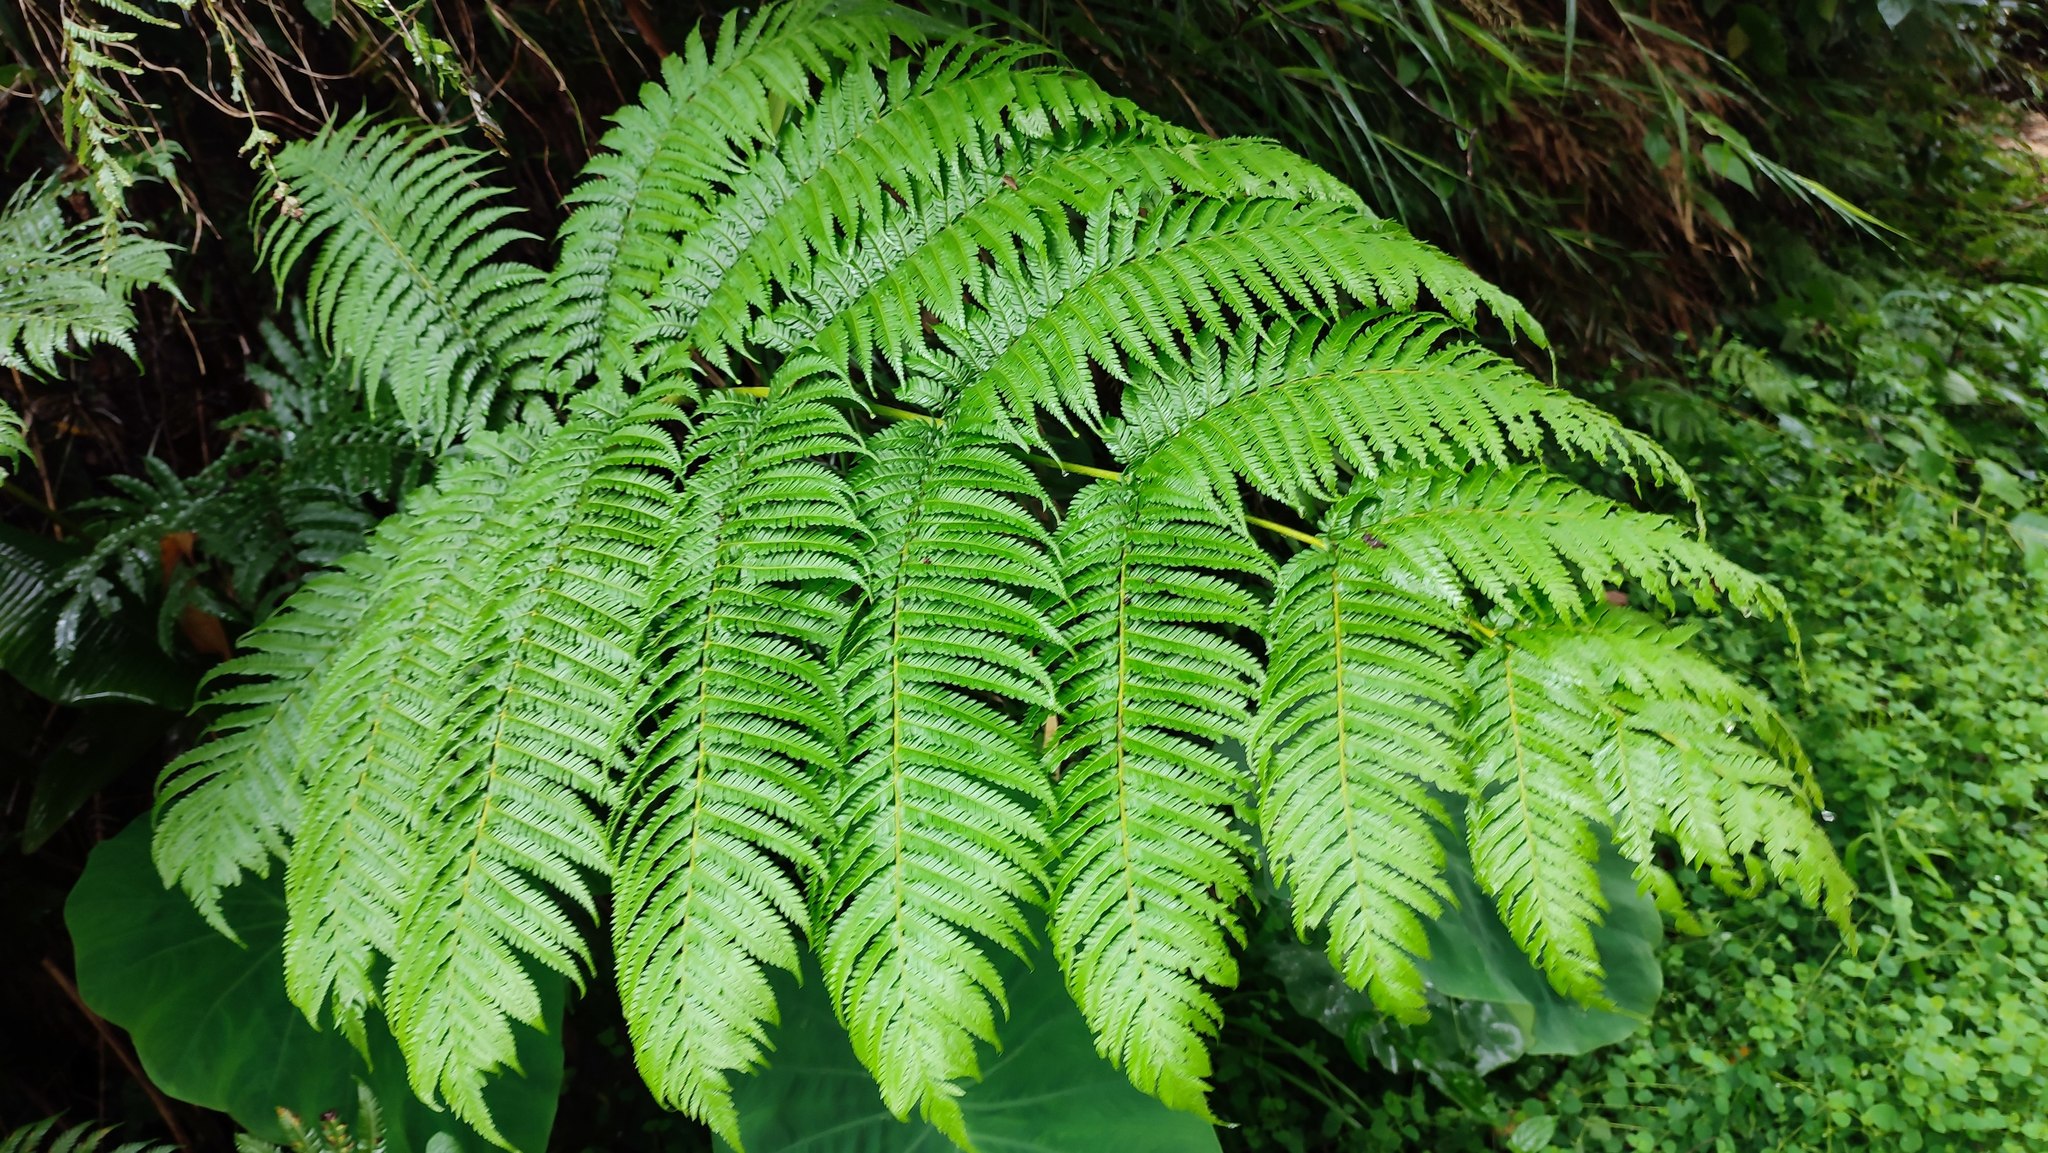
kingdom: Plantae
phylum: Tracheophyta
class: Polypodiopsida
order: Cyatheales
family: Cyatheaceae
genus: Alsophila
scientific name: Alsophila lepifera
